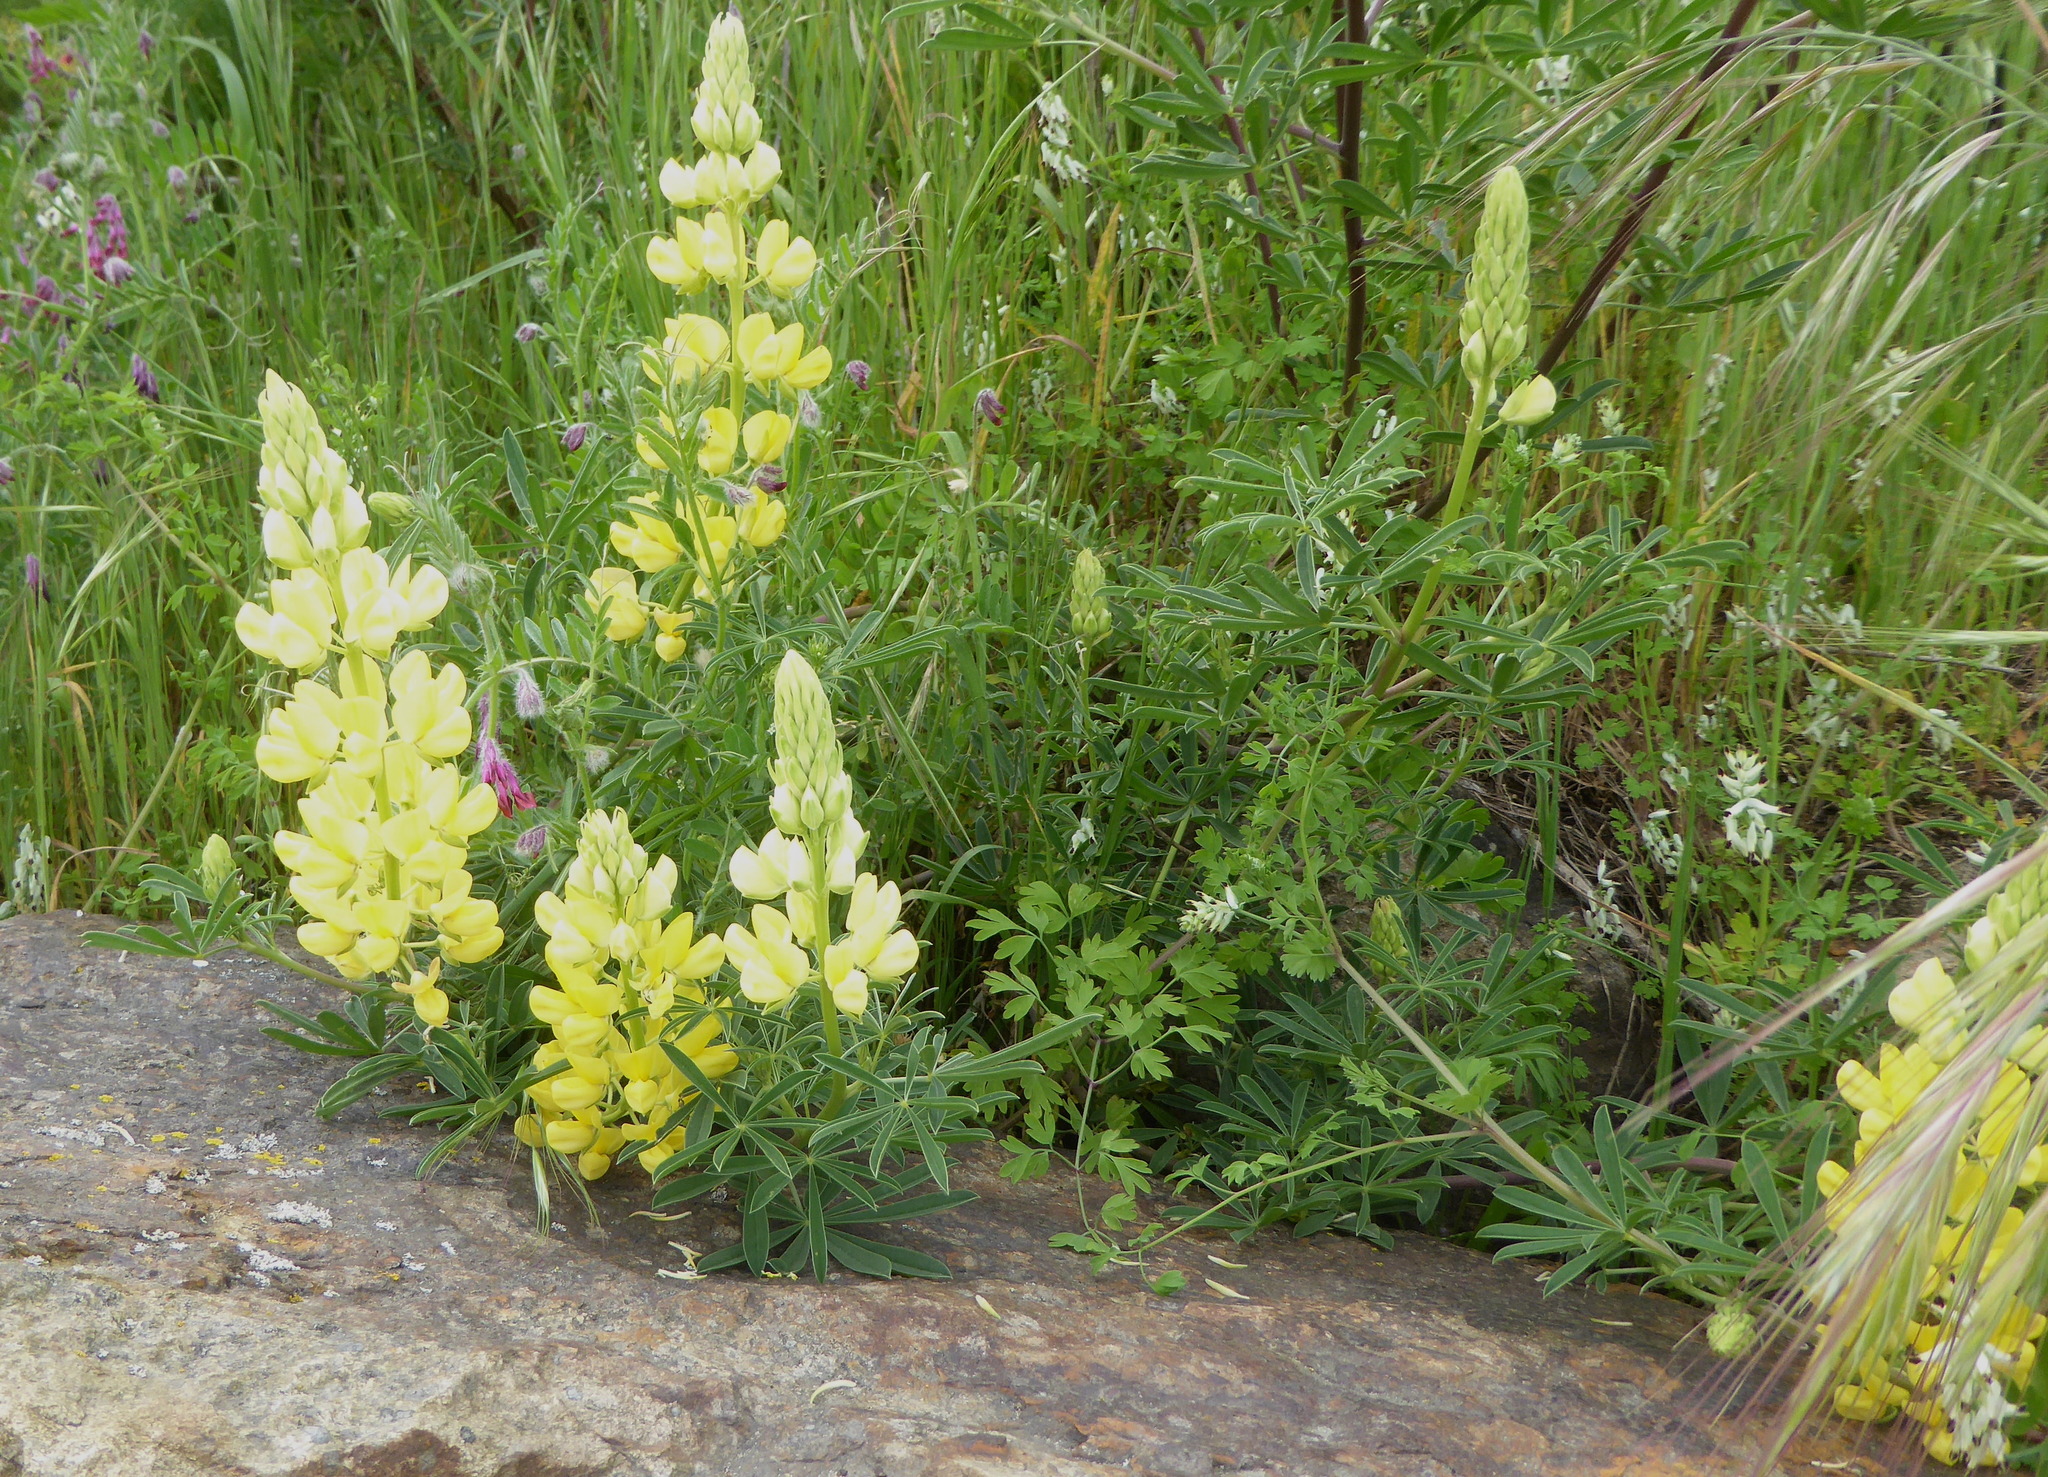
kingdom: Plantae
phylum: Tracheophyta
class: Magnoliopsida
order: Fabales
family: Fabaceae
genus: Lupinus
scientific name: Lupinus arboreus
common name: Yellow bush lupine
